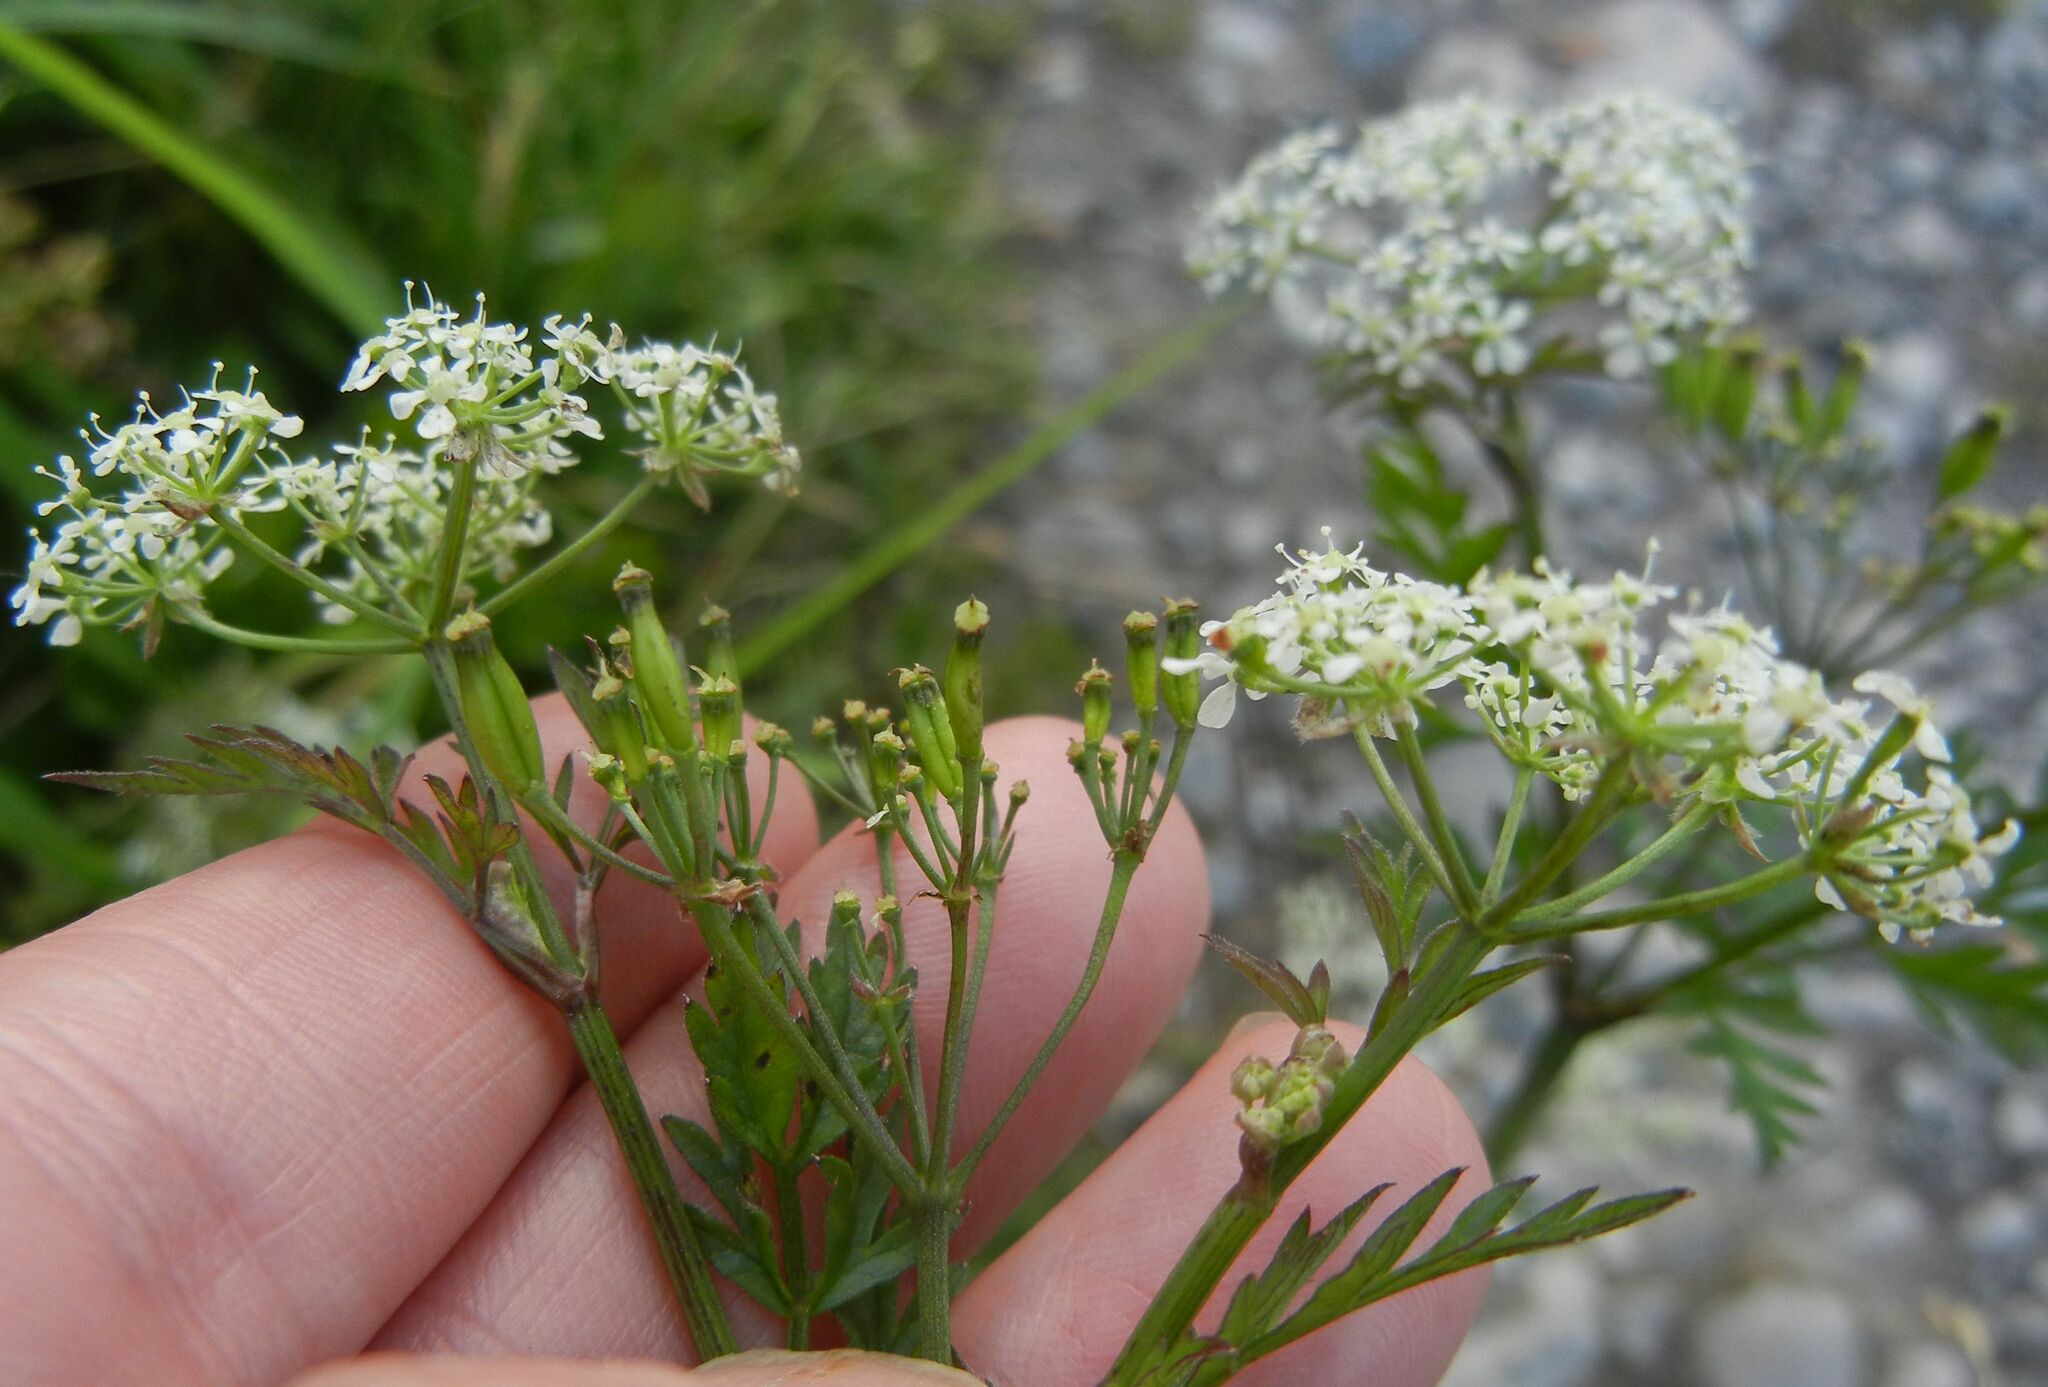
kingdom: Plantae
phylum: Tracheophyta
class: Magnoliopsida
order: Apiales
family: Apiaceae
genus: Anthriscus
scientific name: Anthriscus sylvestris
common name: Cow parsley
